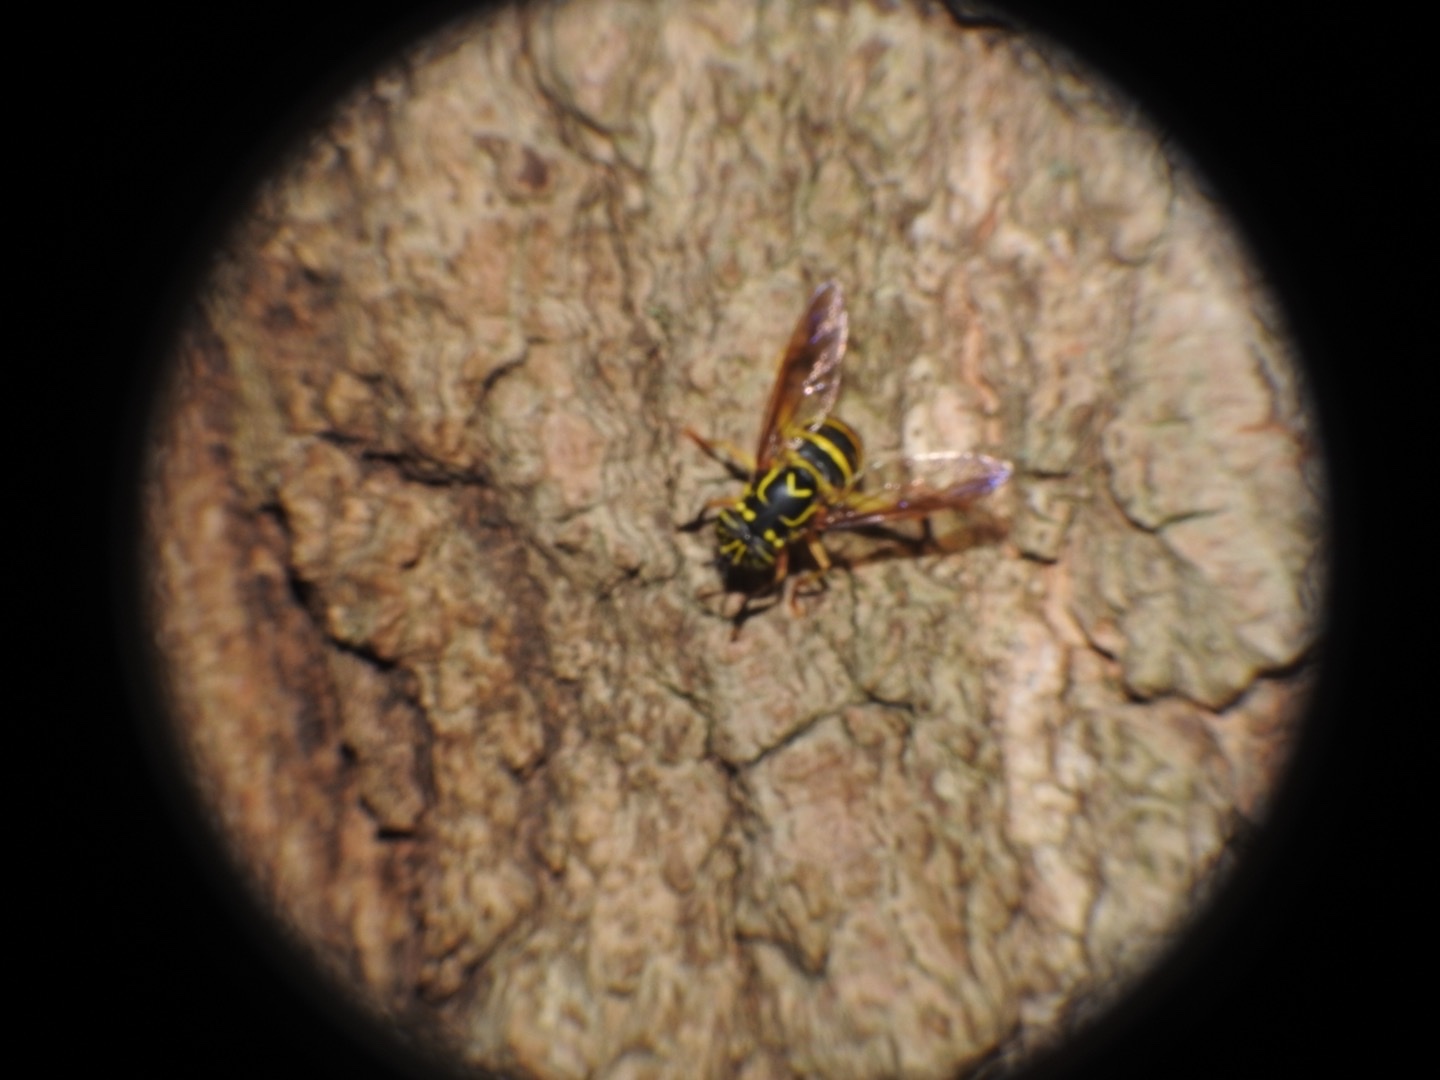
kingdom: Animalia
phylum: Arthropoda
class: Insecta
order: Diptera
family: Syrphidae
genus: Spilomyia
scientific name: Spilomyia longicornis
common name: Eastern hornet fly
